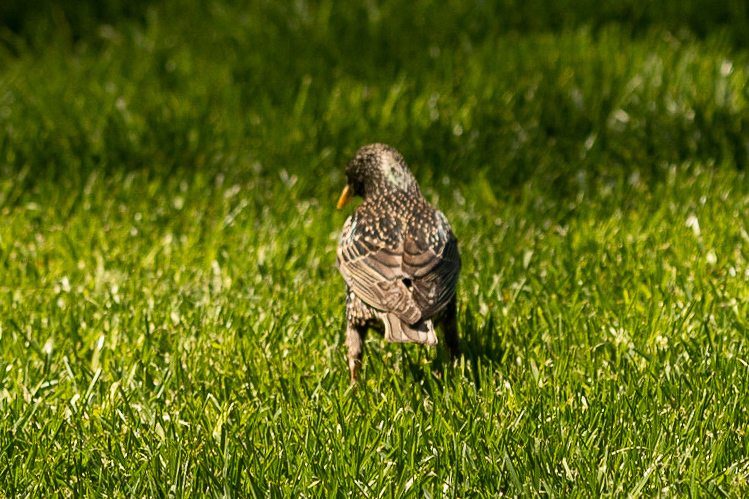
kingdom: Animalia
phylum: Chordata
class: Aves
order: Passeriformes
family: Sturnidae
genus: Sturnus
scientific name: Sturnus vulgaris
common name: Common starling
